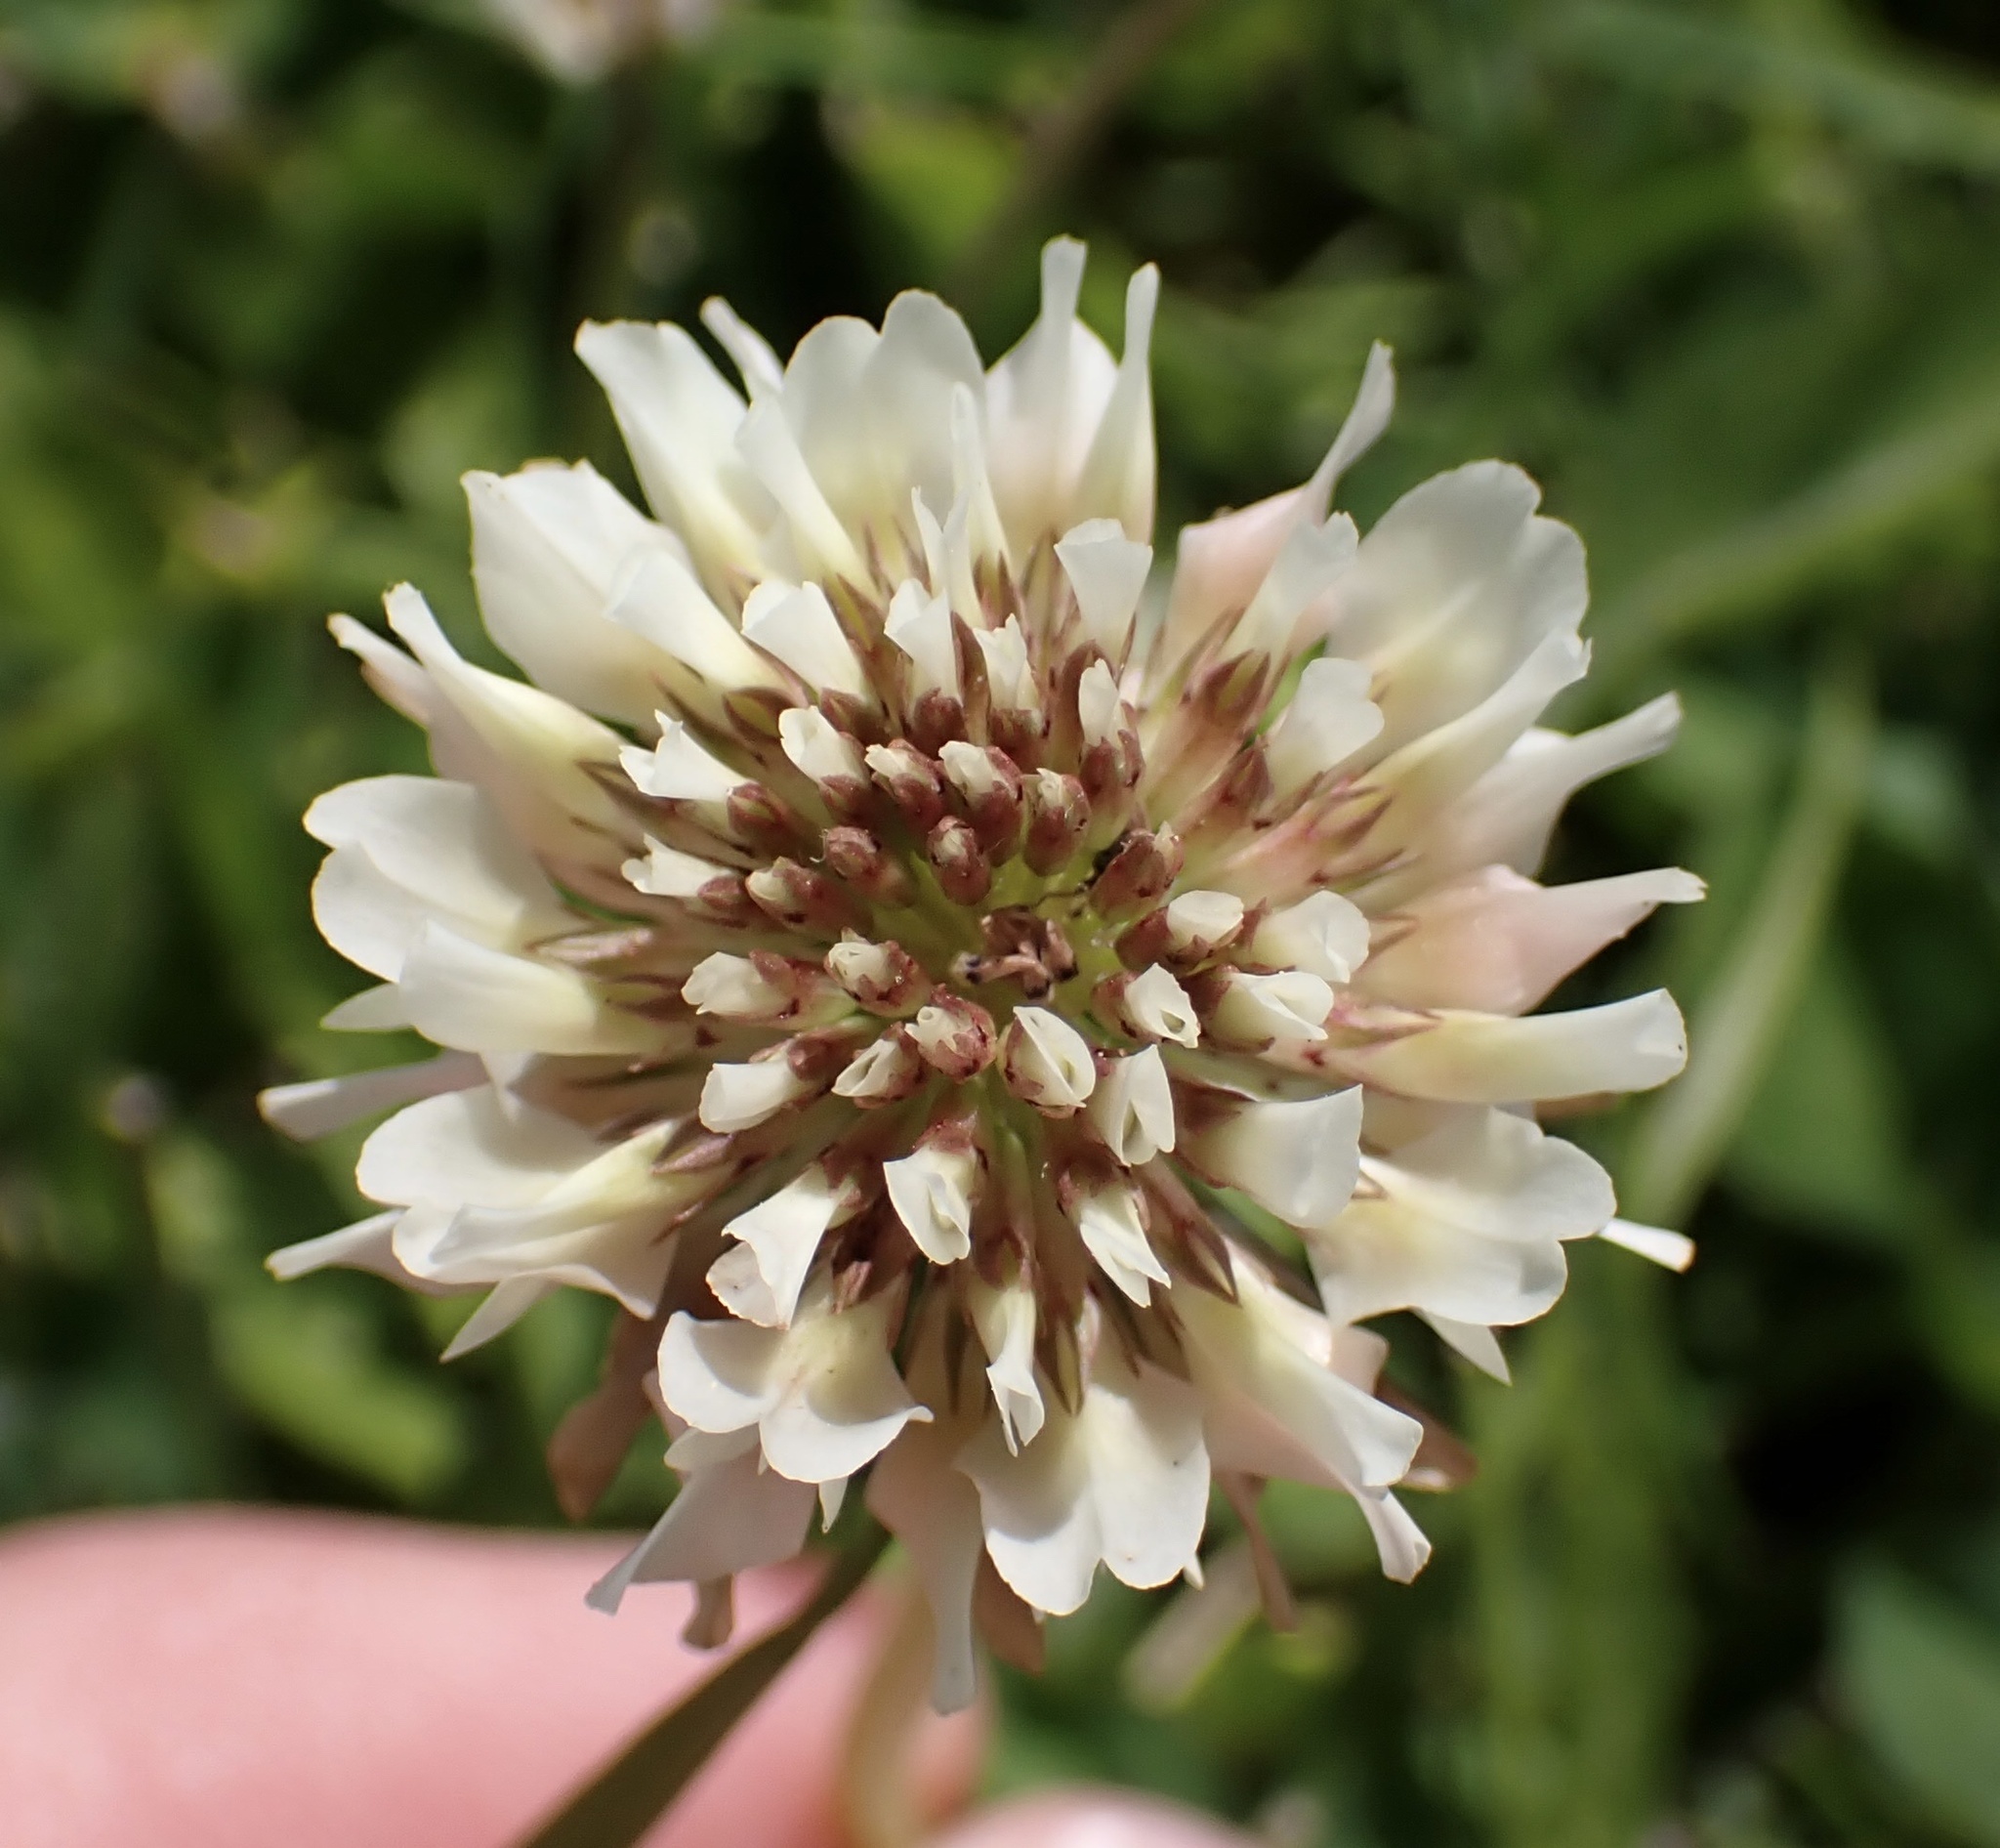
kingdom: Plantae
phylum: Tracheophyta
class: Magnoliopsida
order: Fabales
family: Fabaceae
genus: Trifolium
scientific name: Trifolium repens
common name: White clover
